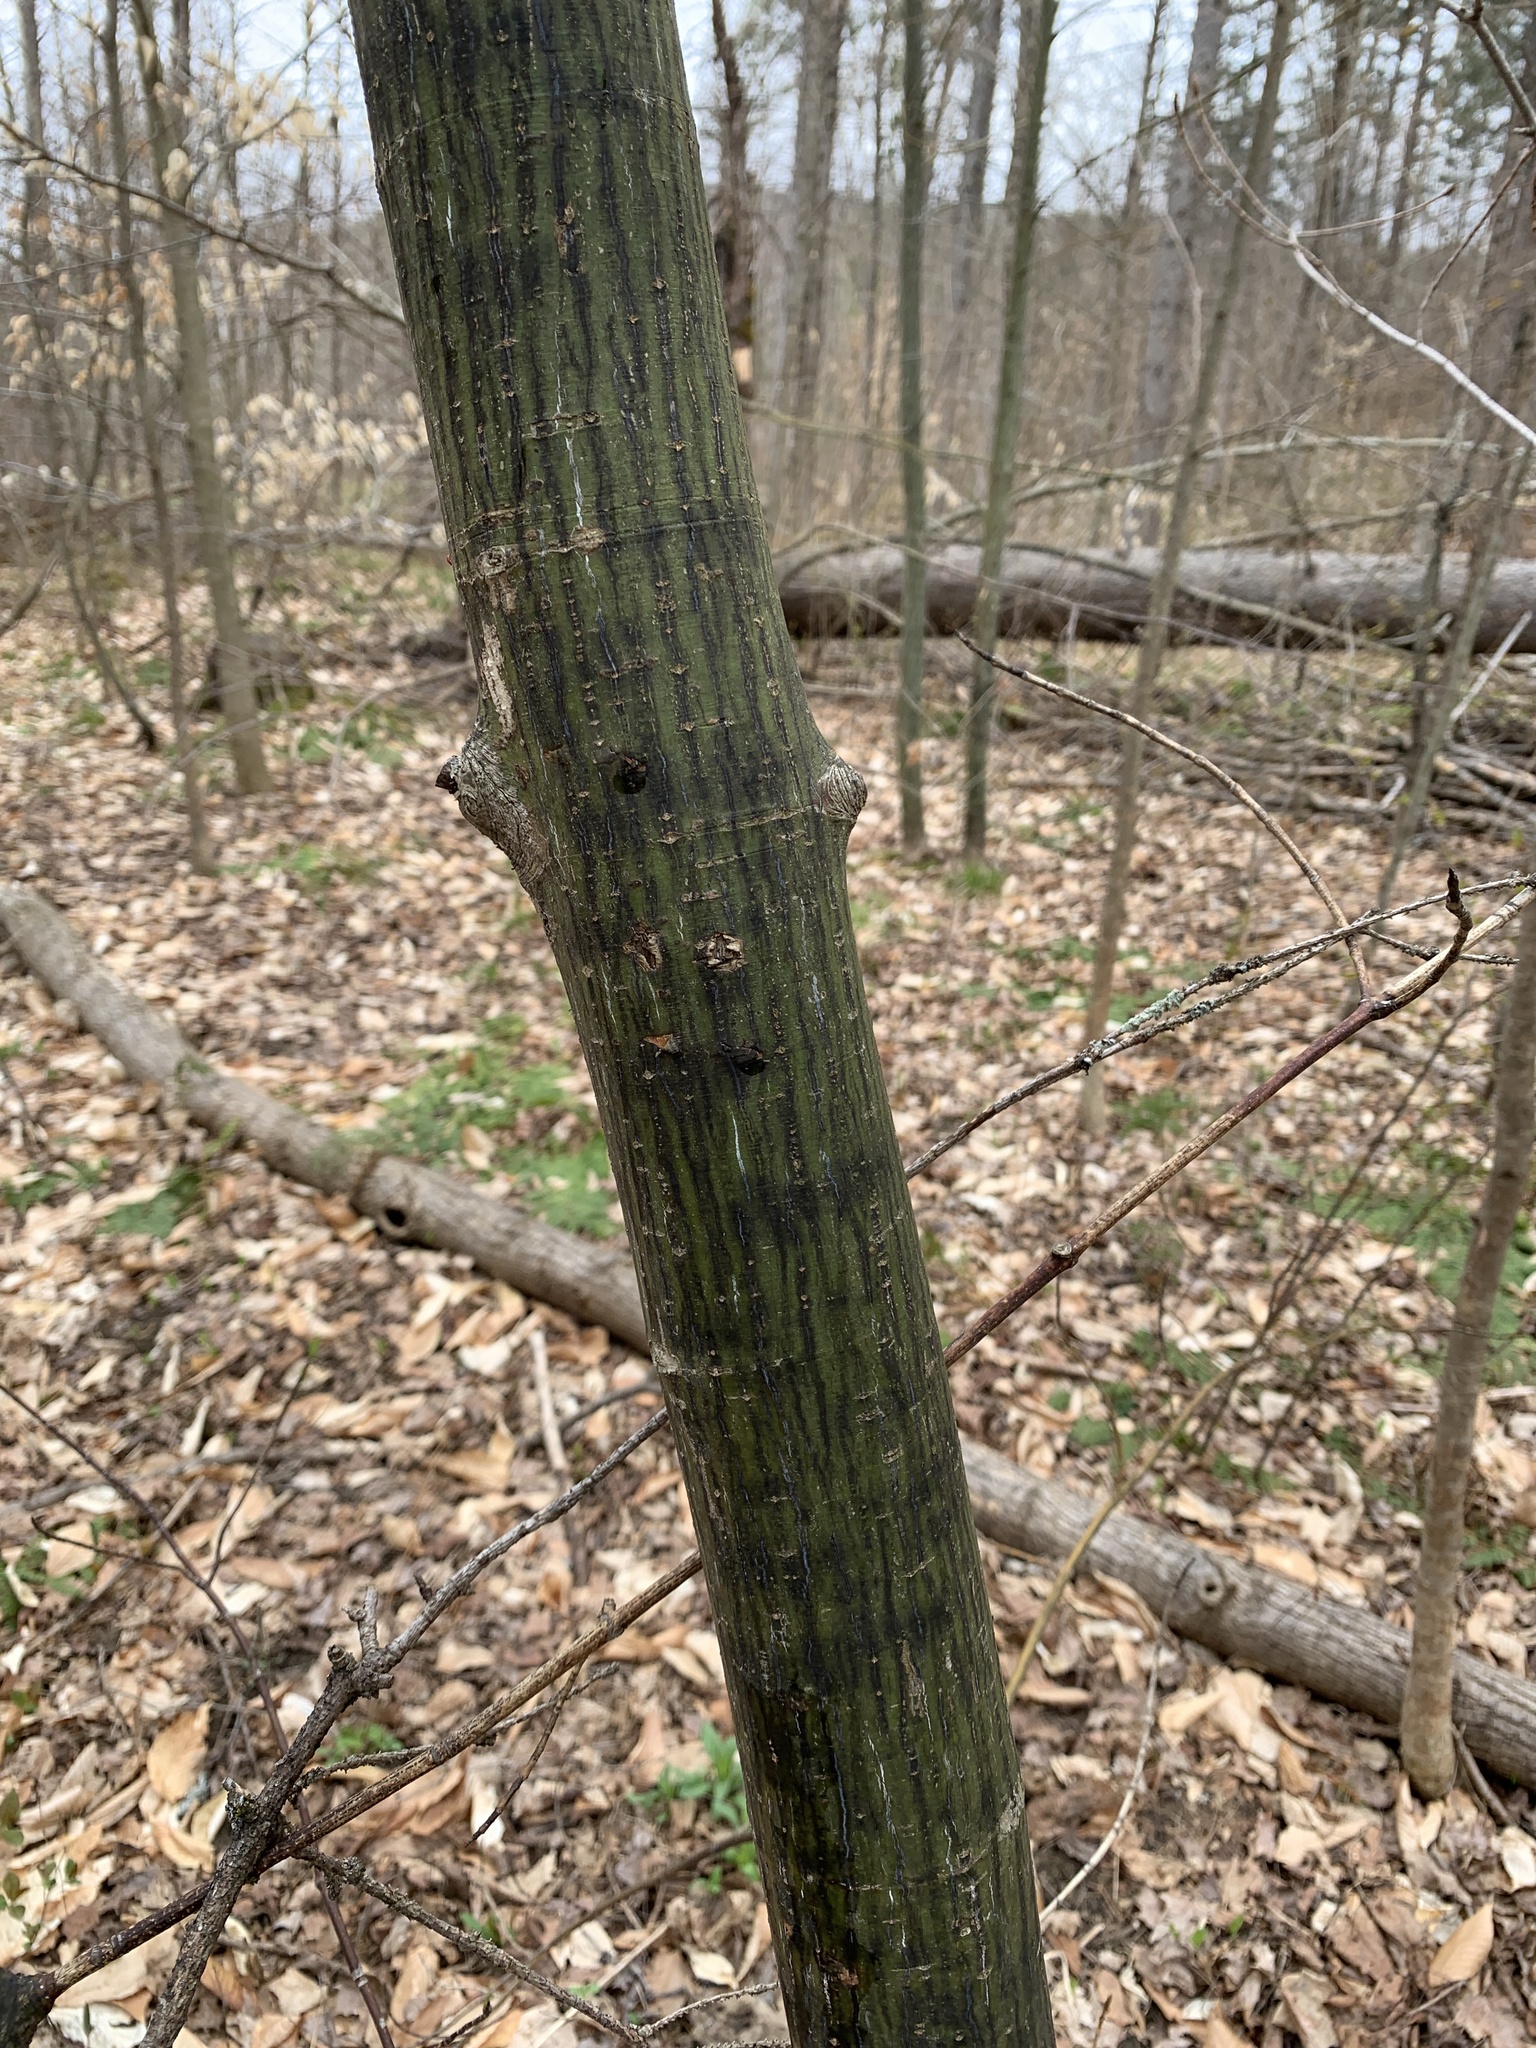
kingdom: Plantae
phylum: Tracheophyta
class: Magnoliopsida
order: Sapindales
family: Sapindaceae
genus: Acer
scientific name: Acer pensylvanicum
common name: Moosewood
